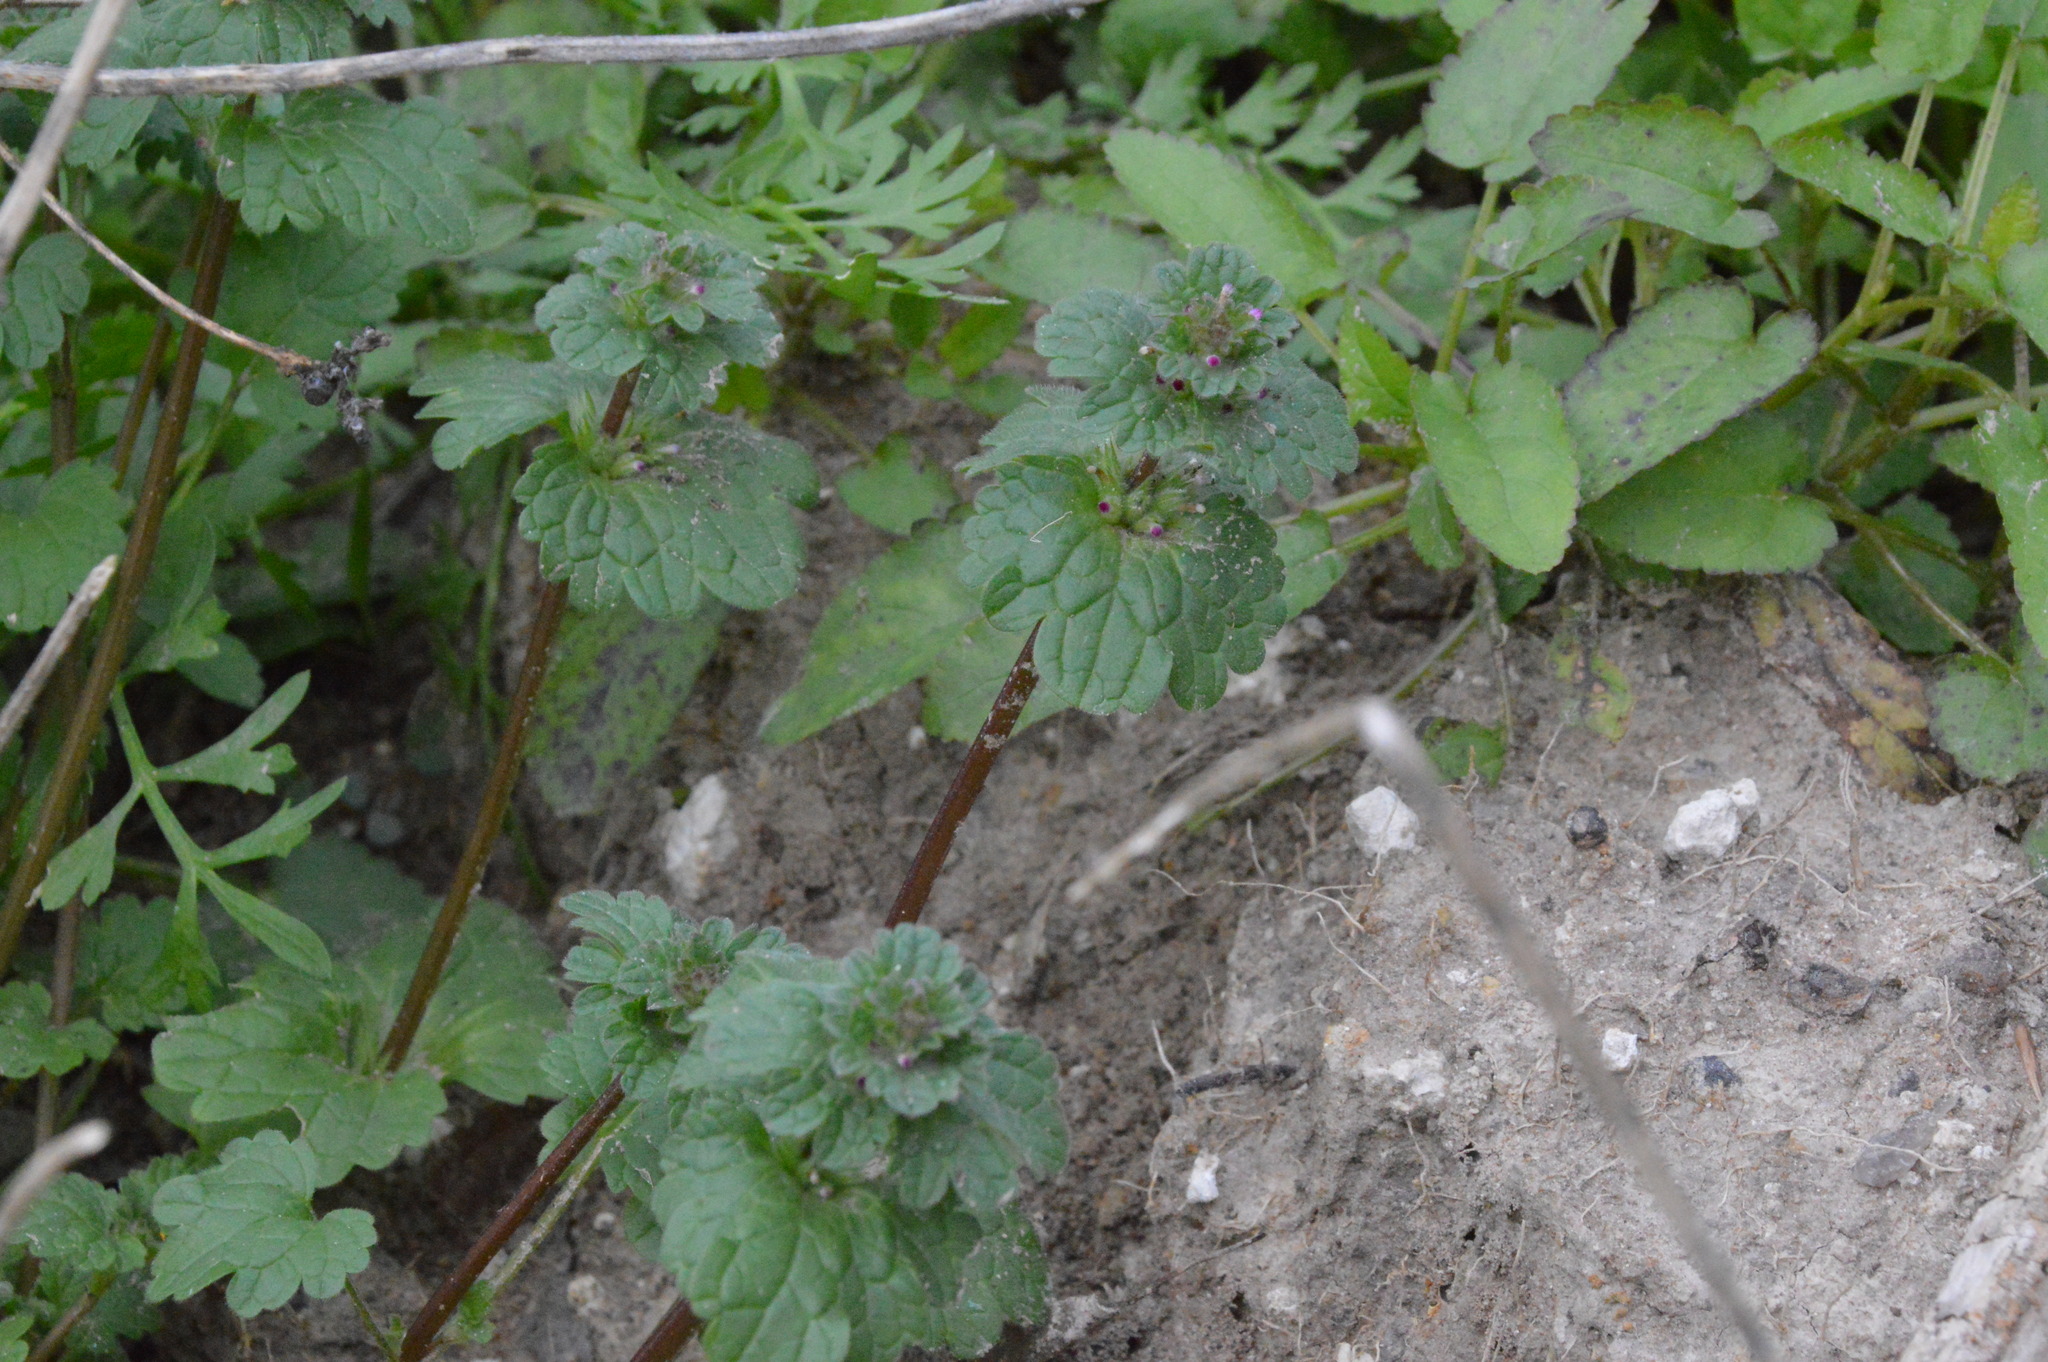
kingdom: Plantae
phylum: Tracheophyta
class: Magnoliopsida
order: Lamiales
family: Lamiaceae
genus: Lamium
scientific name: Lamium amplexicaule
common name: Henbit dead-nettle
